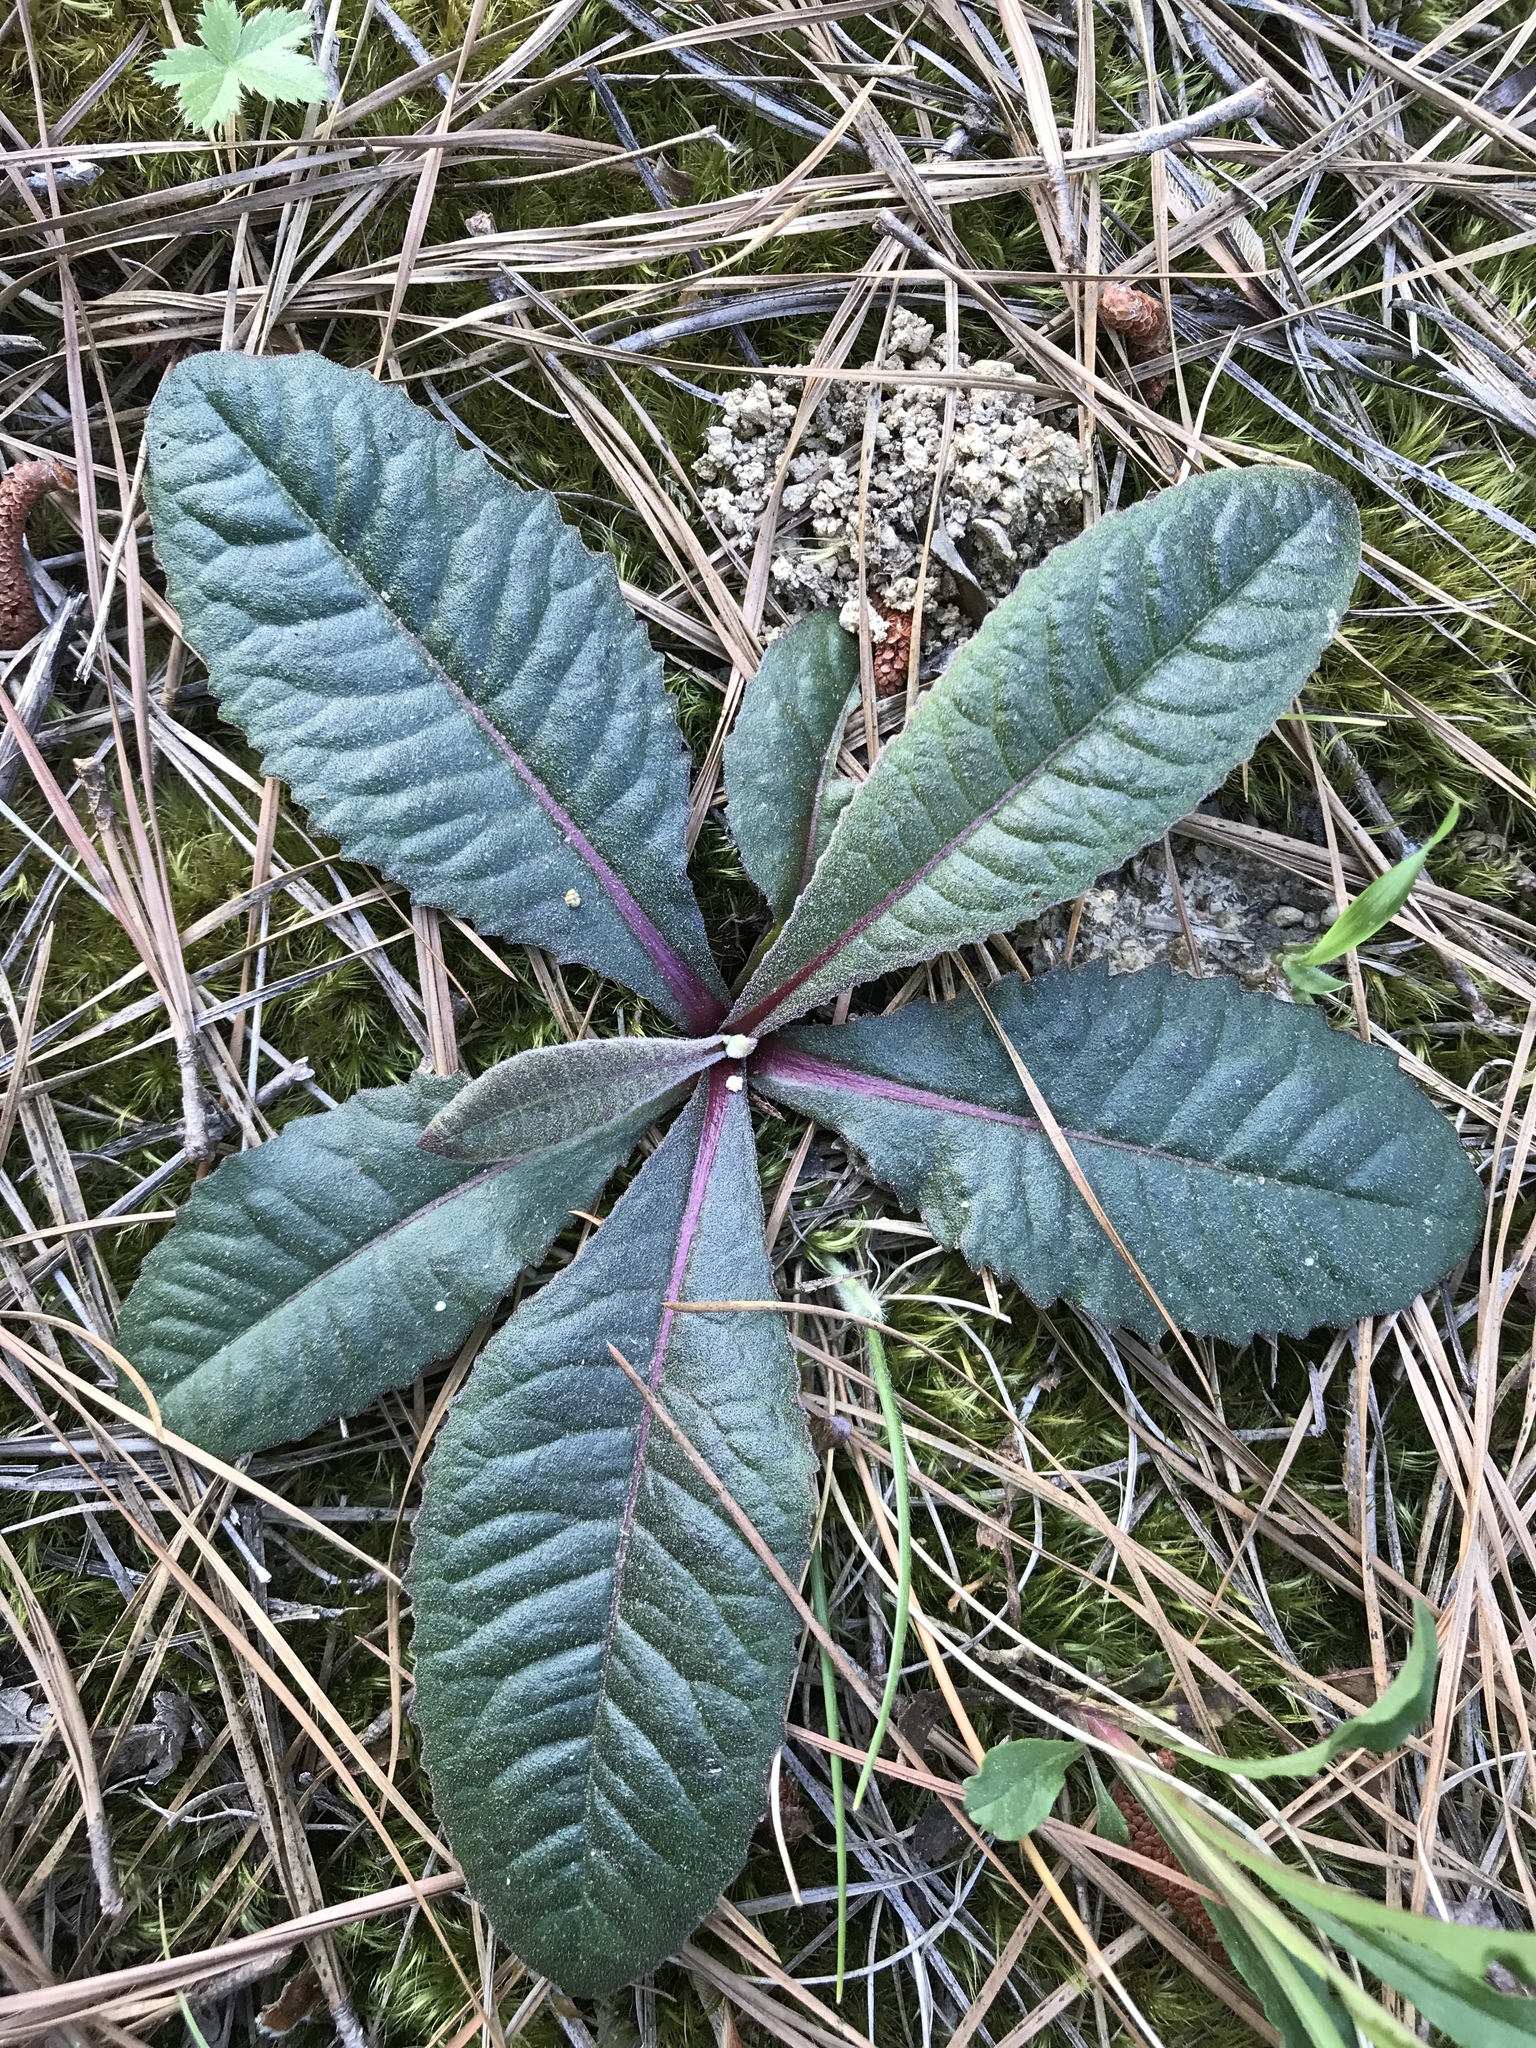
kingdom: Plantae
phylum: Tracheophyta
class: Magnoliopsida
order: Asterales
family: Asteraceae
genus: Vernonia
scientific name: Vernonia acaulis
